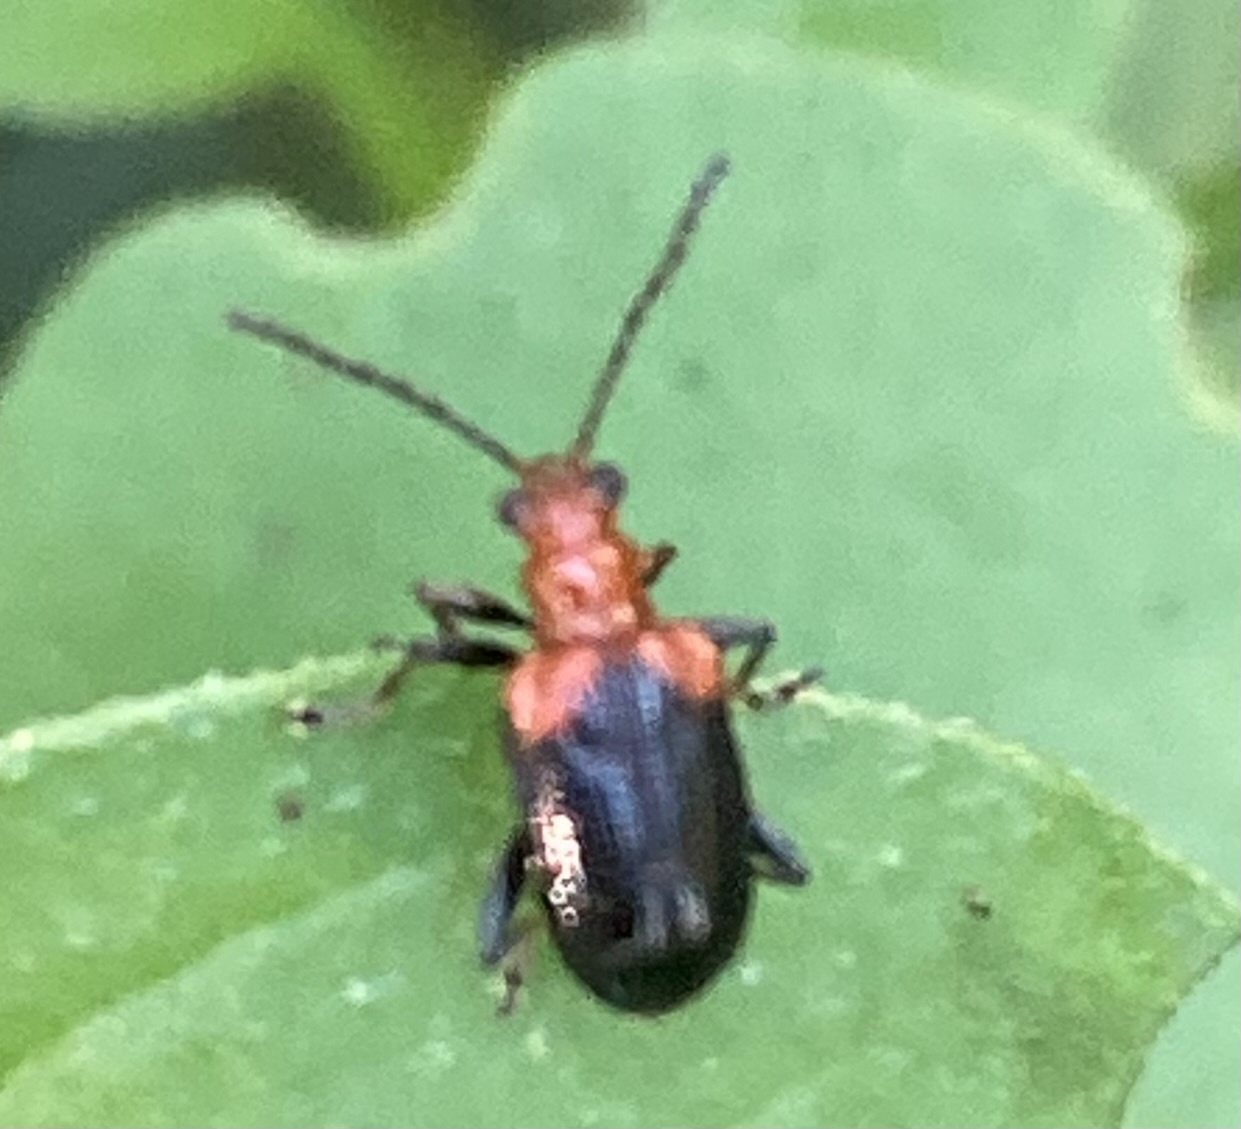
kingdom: Animalia
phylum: Arthropoda
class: Insecta
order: Coleoptera
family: Chrysomelidae
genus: Neolema
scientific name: Neolema
